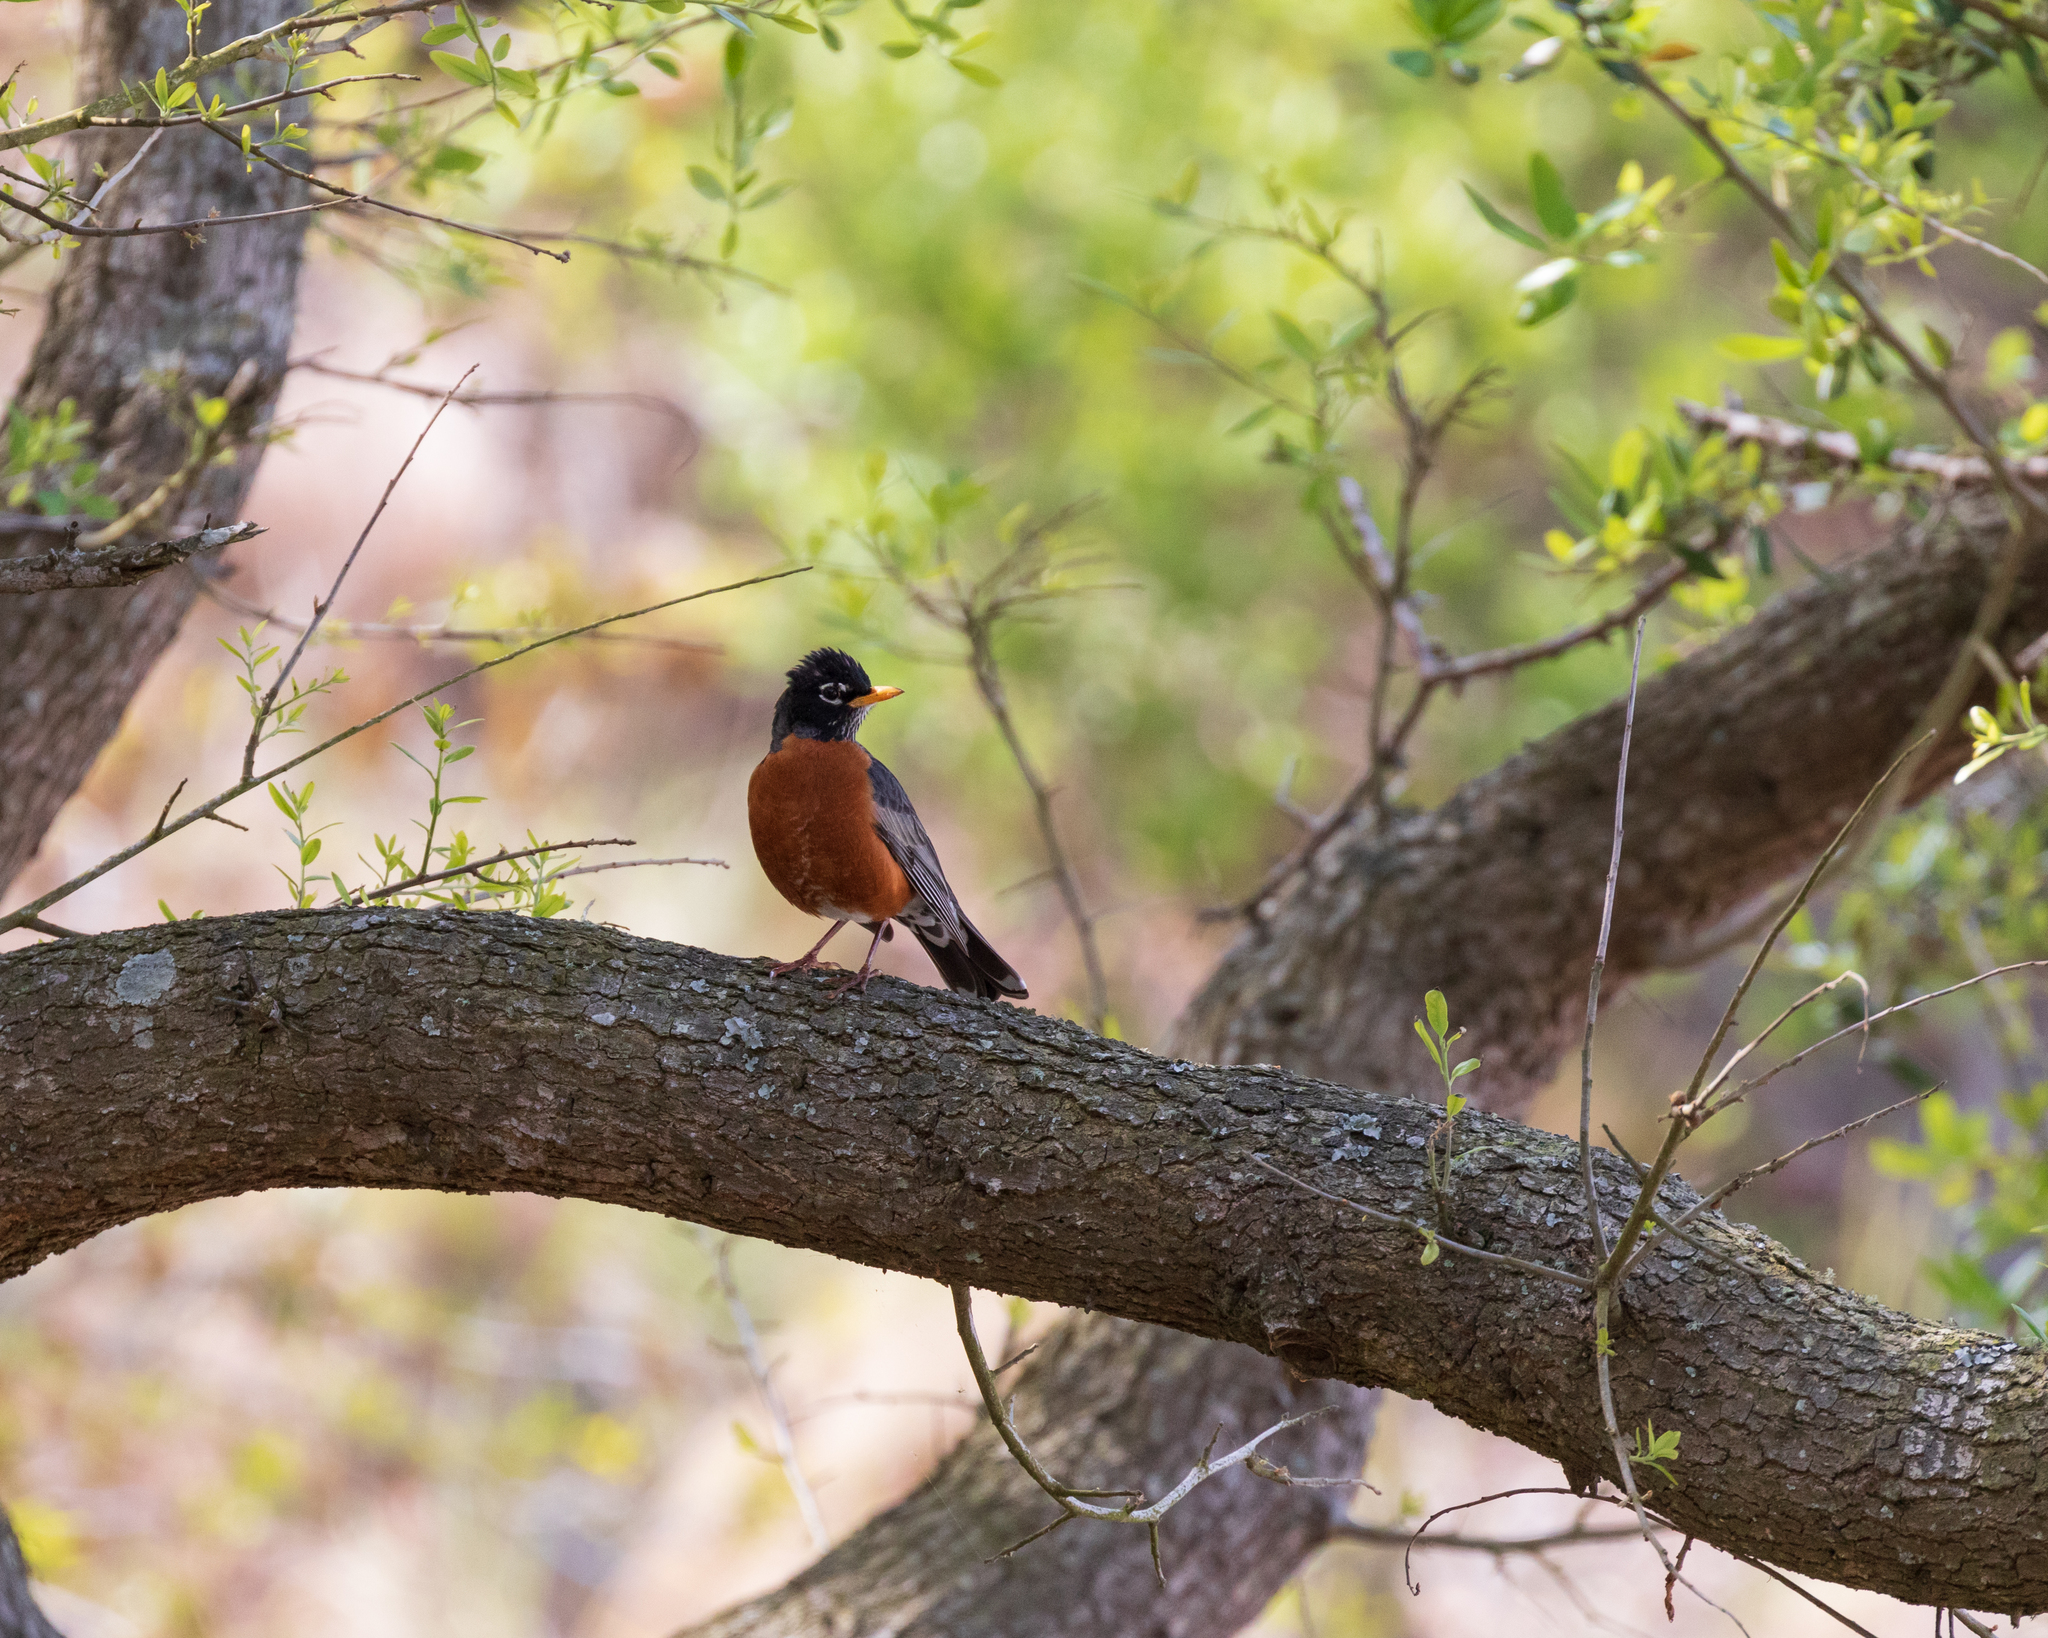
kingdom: Animalia
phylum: Chordata
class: Aves
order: Passeriformes
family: Turdidae
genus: Turdus
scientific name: Turdus migratorius
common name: American robin
